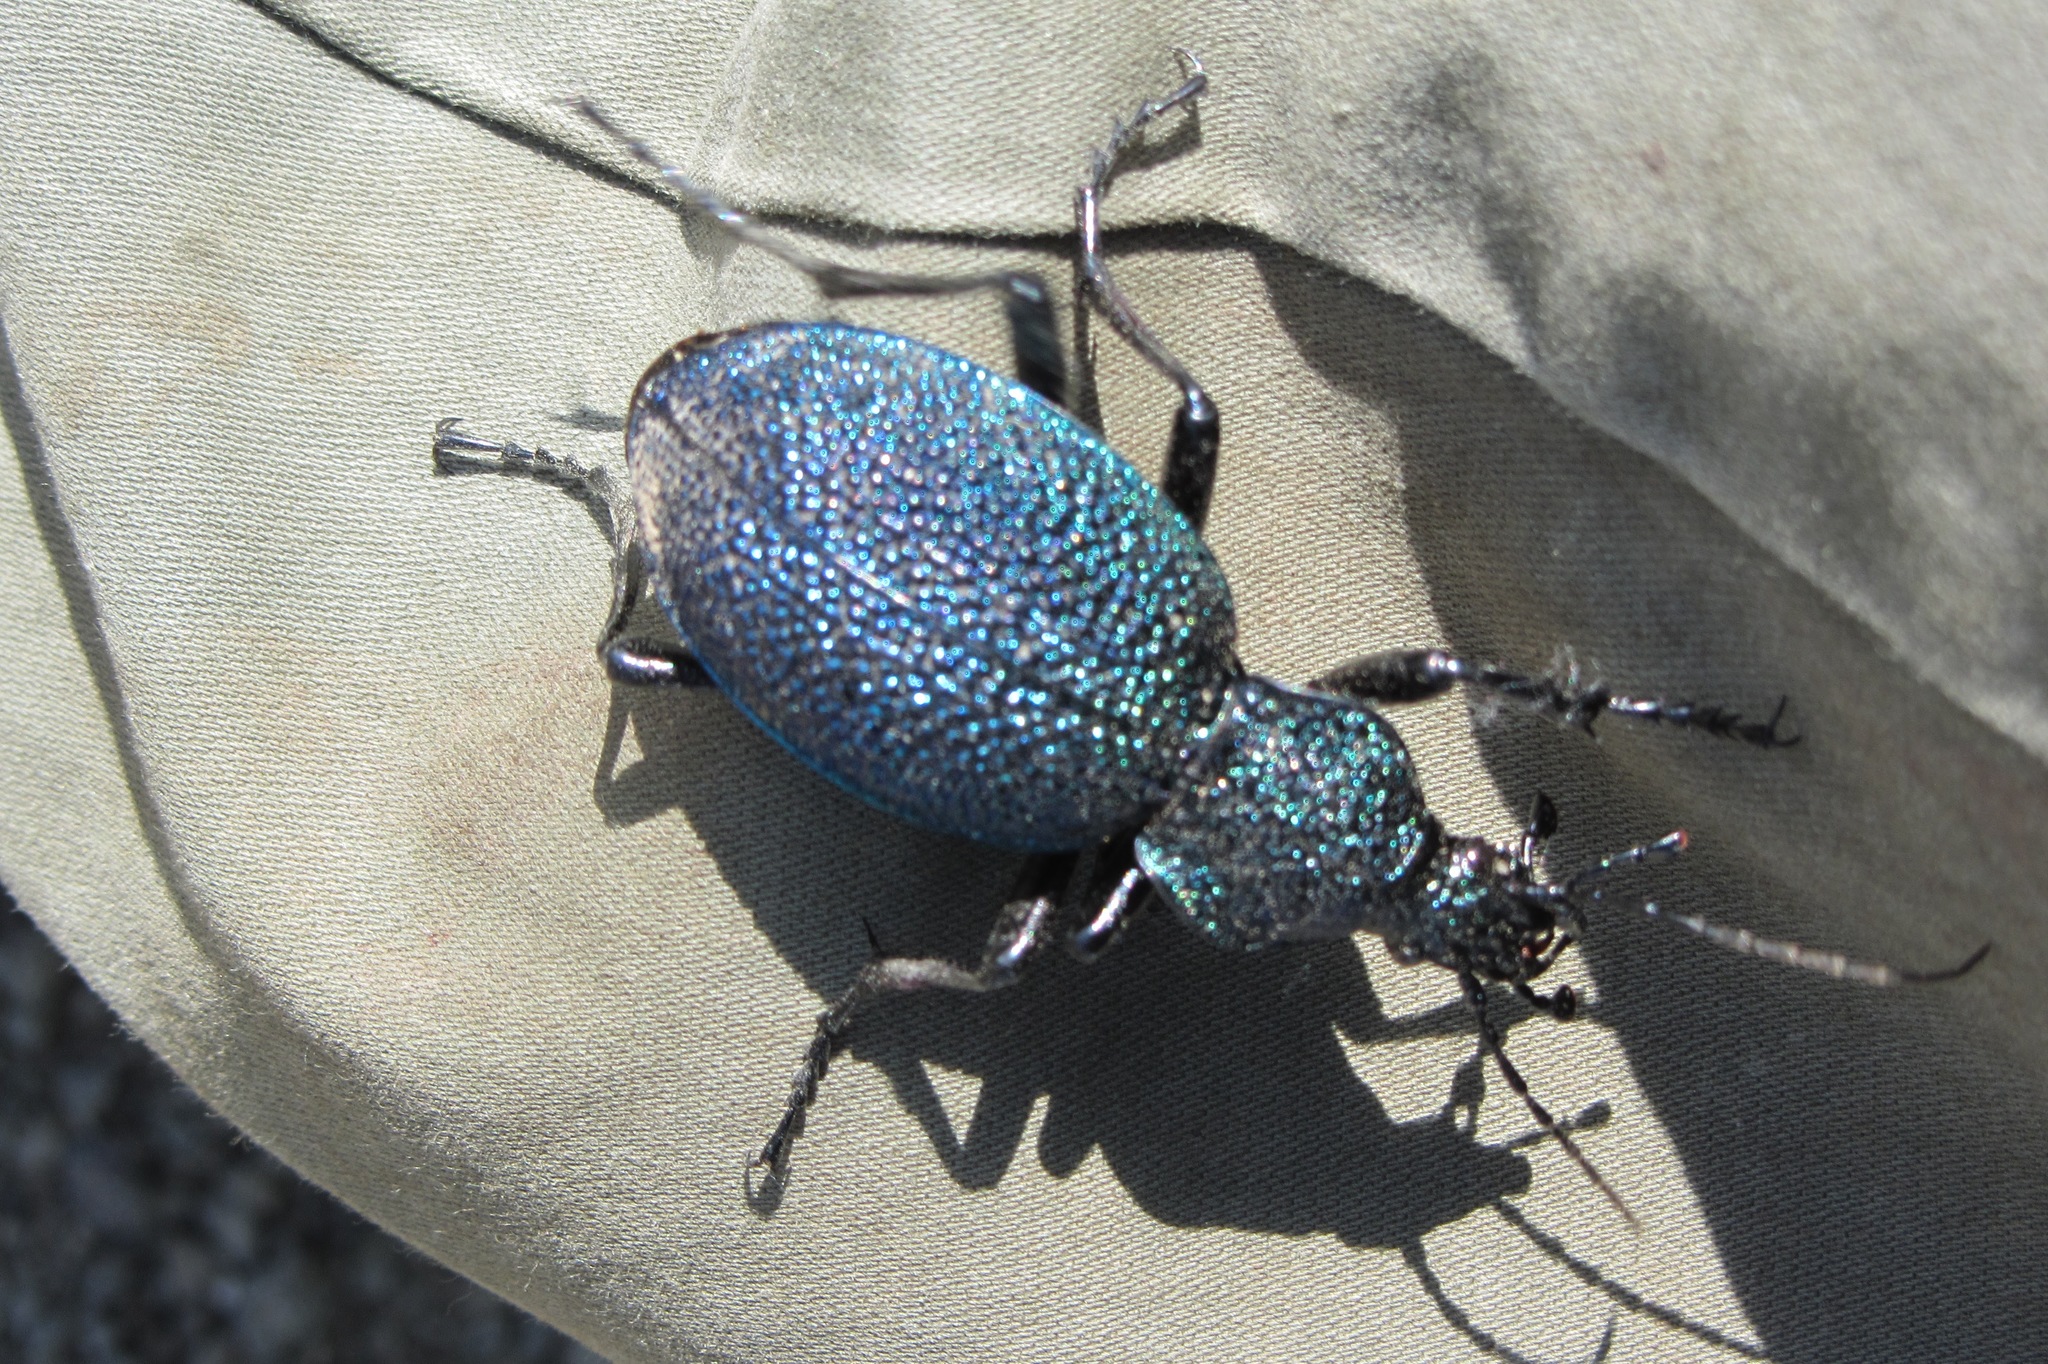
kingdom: Animalia
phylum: Arthropoda
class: Insecta
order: Coleoptera
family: Carabidae
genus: Carabus
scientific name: Carabus scabrosus
